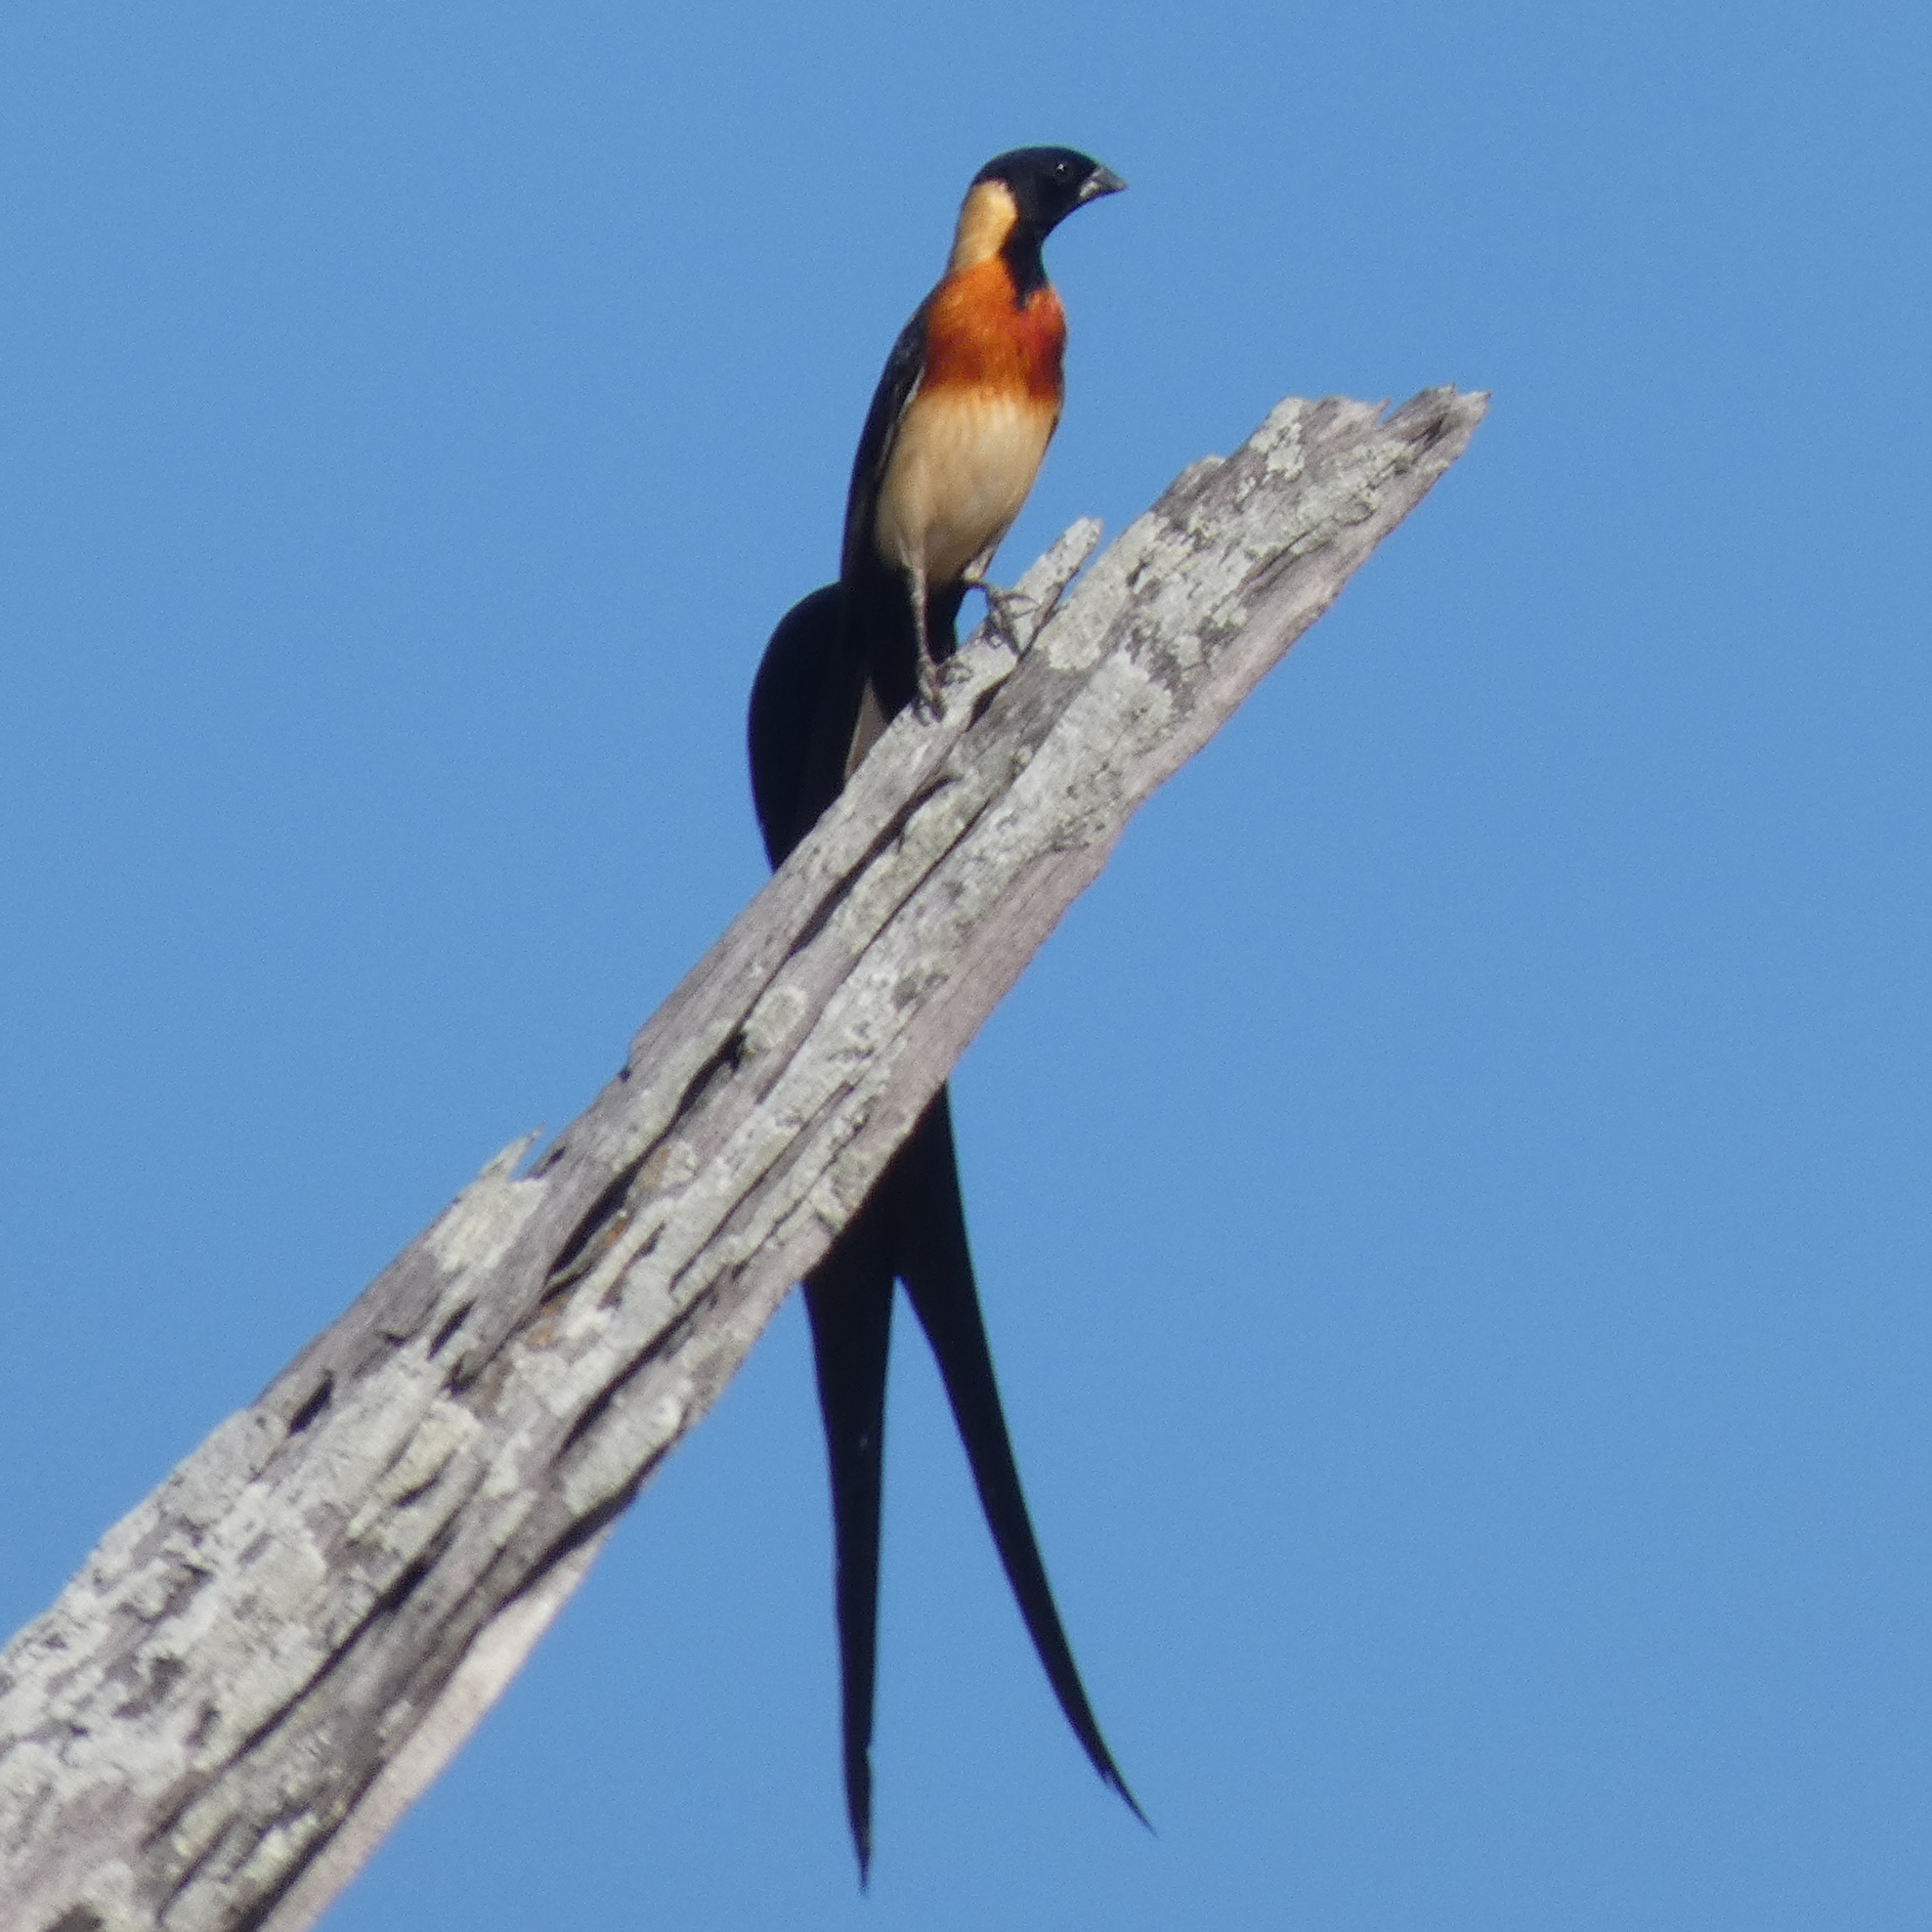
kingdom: Animalia
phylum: Chordata
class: Aves
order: Passeriformes
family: Viduidae
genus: Vidua
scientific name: Vidua paradisaea
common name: Long-tailed paradise whydah
